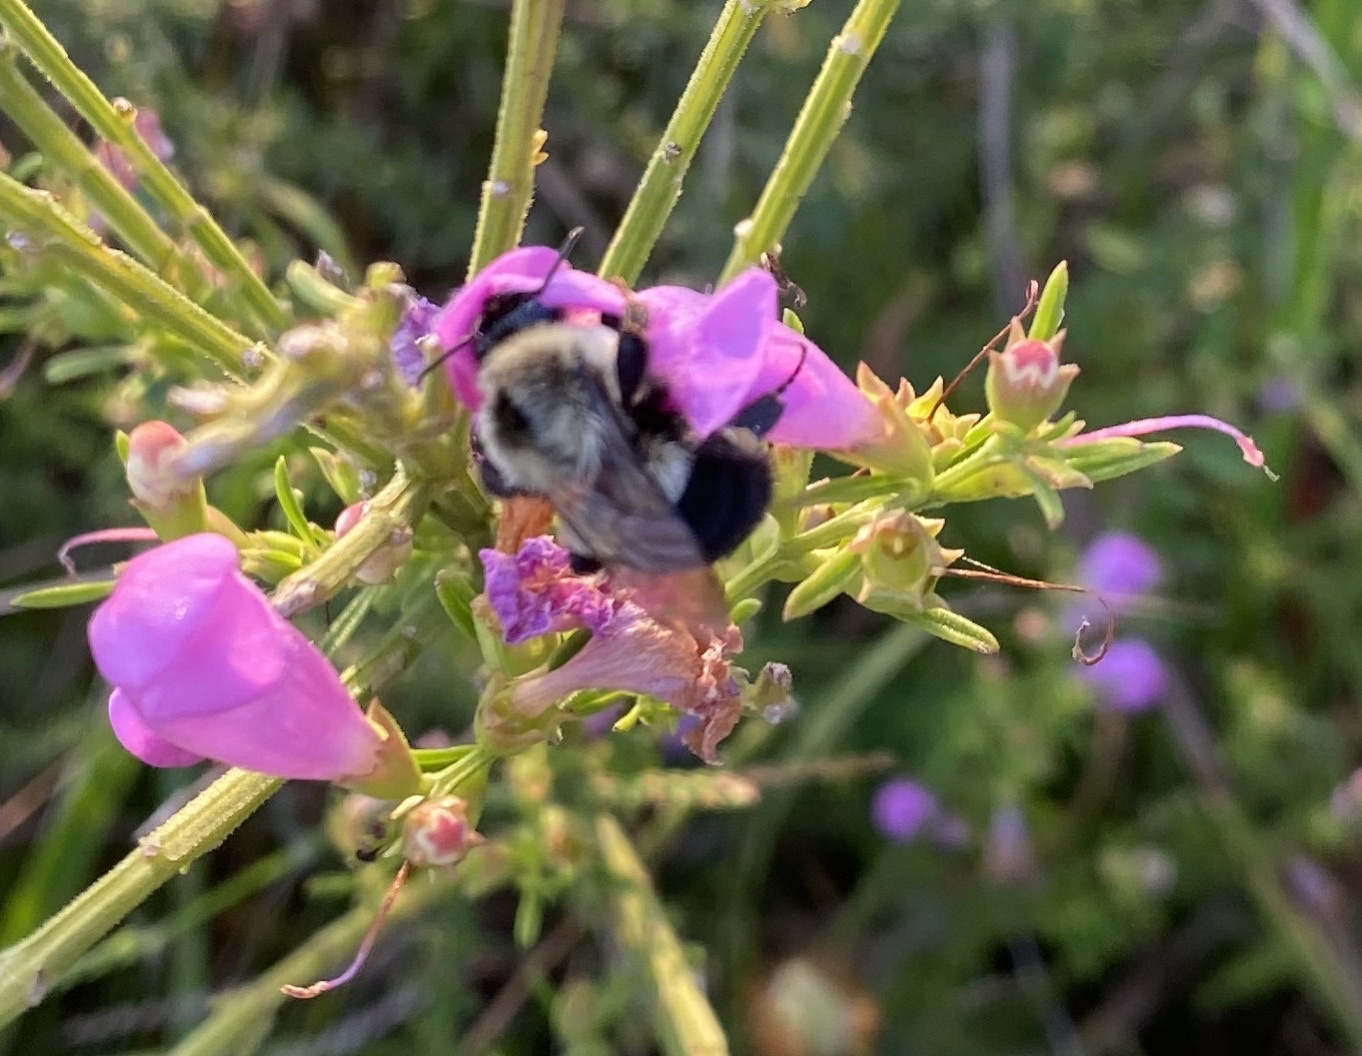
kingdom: Animalia
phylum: Arthropoda
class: Insecta
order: Hymenoptera
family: Apidae
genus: Bombus
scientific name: Bombus impatiens
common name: Common eastern bumble bee
